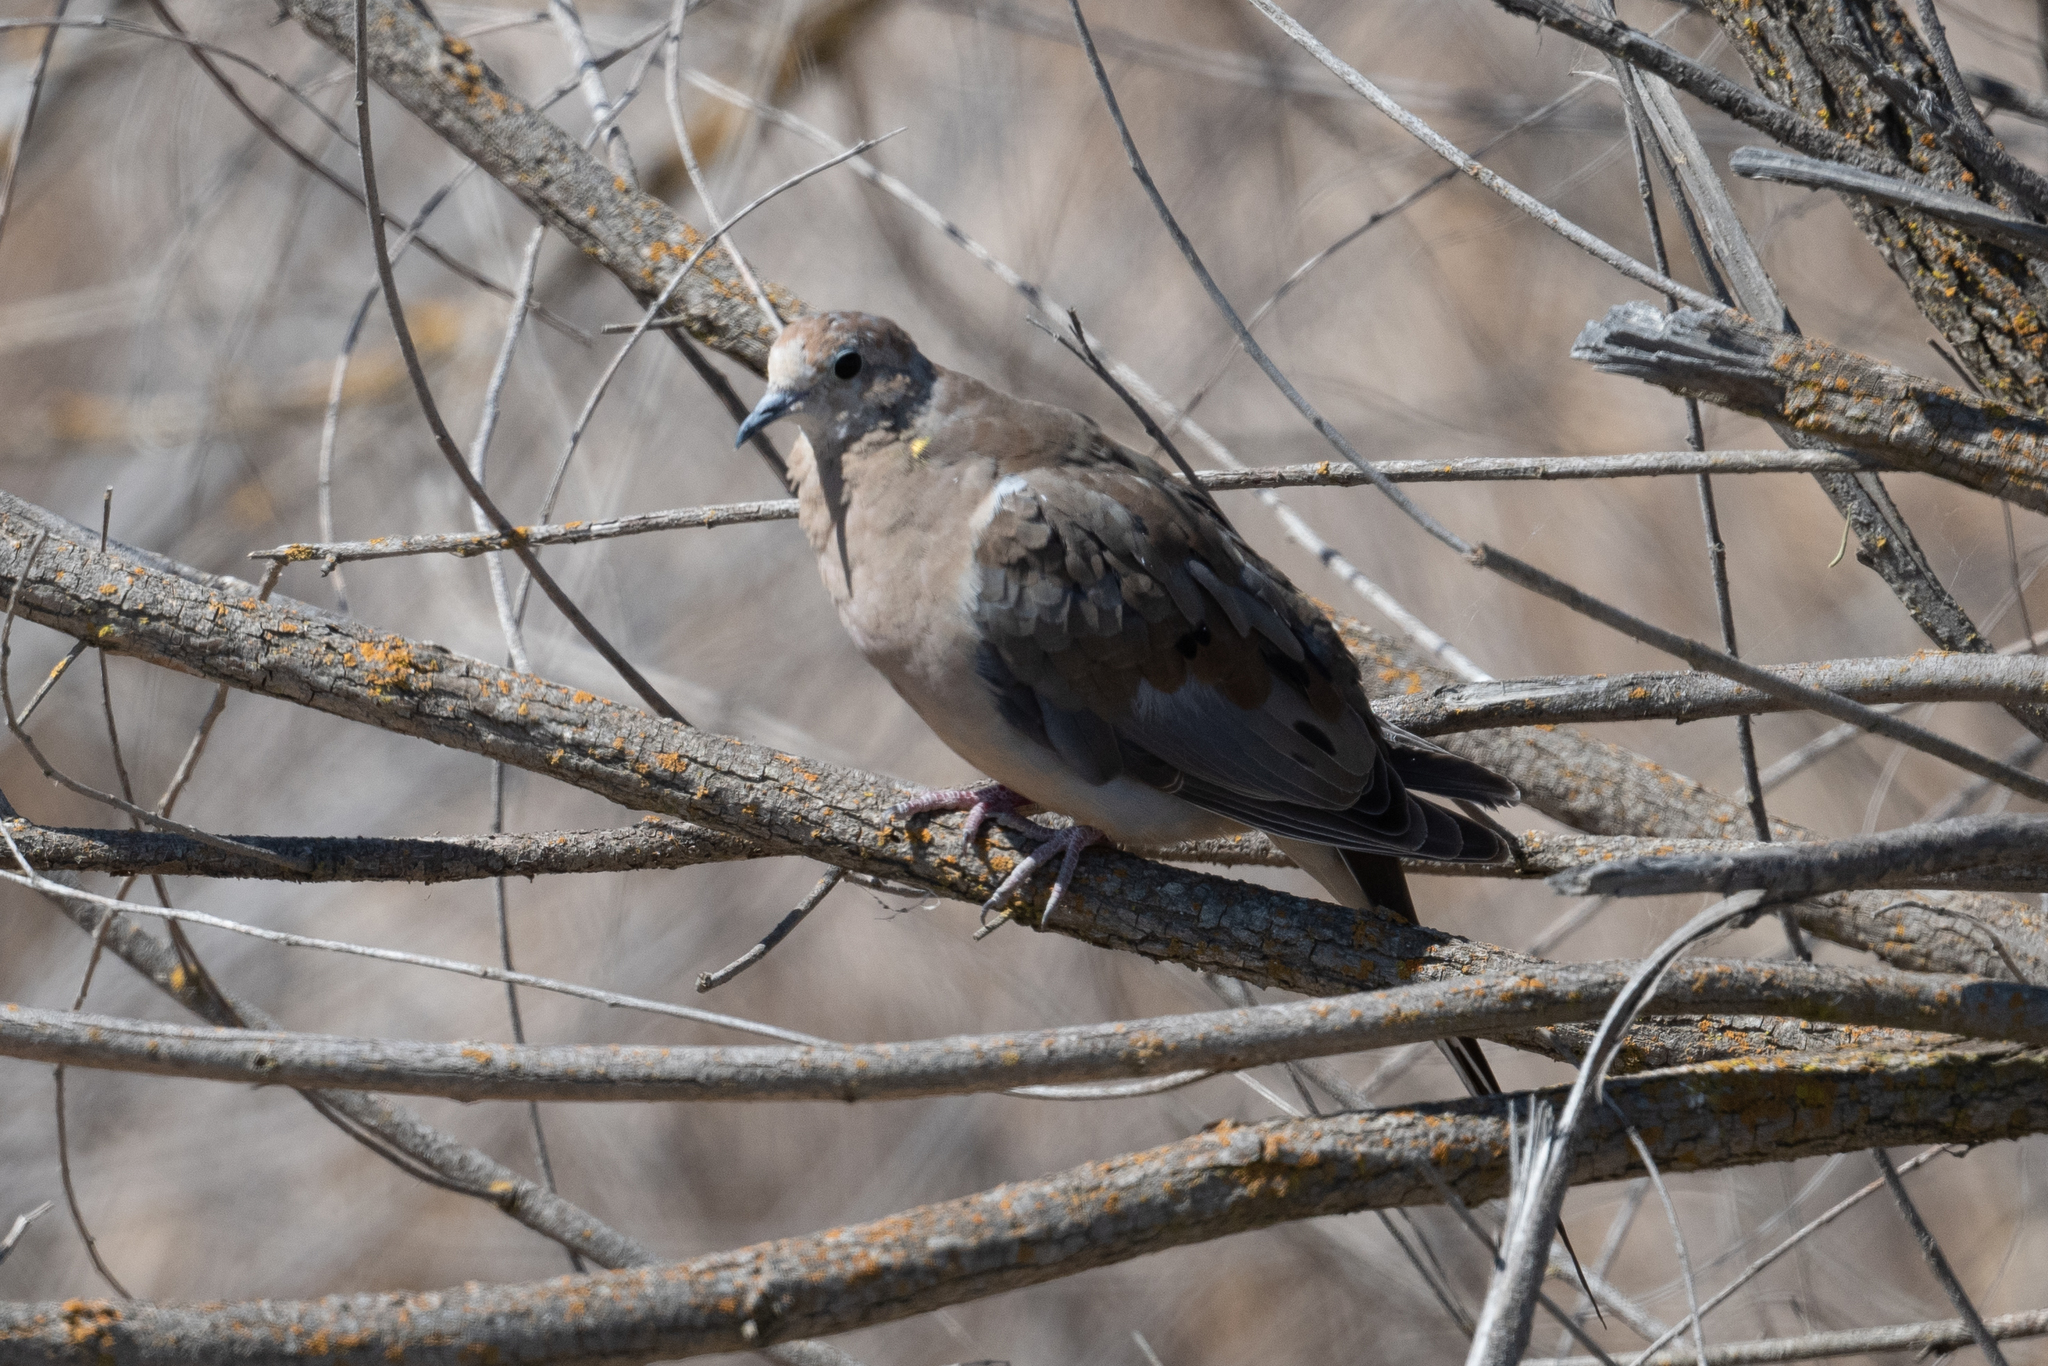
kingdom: Animalia
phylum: Chordata
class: Aves
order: Columbiformes
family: Columbidae
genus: Zenaida
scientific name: Zenaida macroura
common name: Mourning dove
